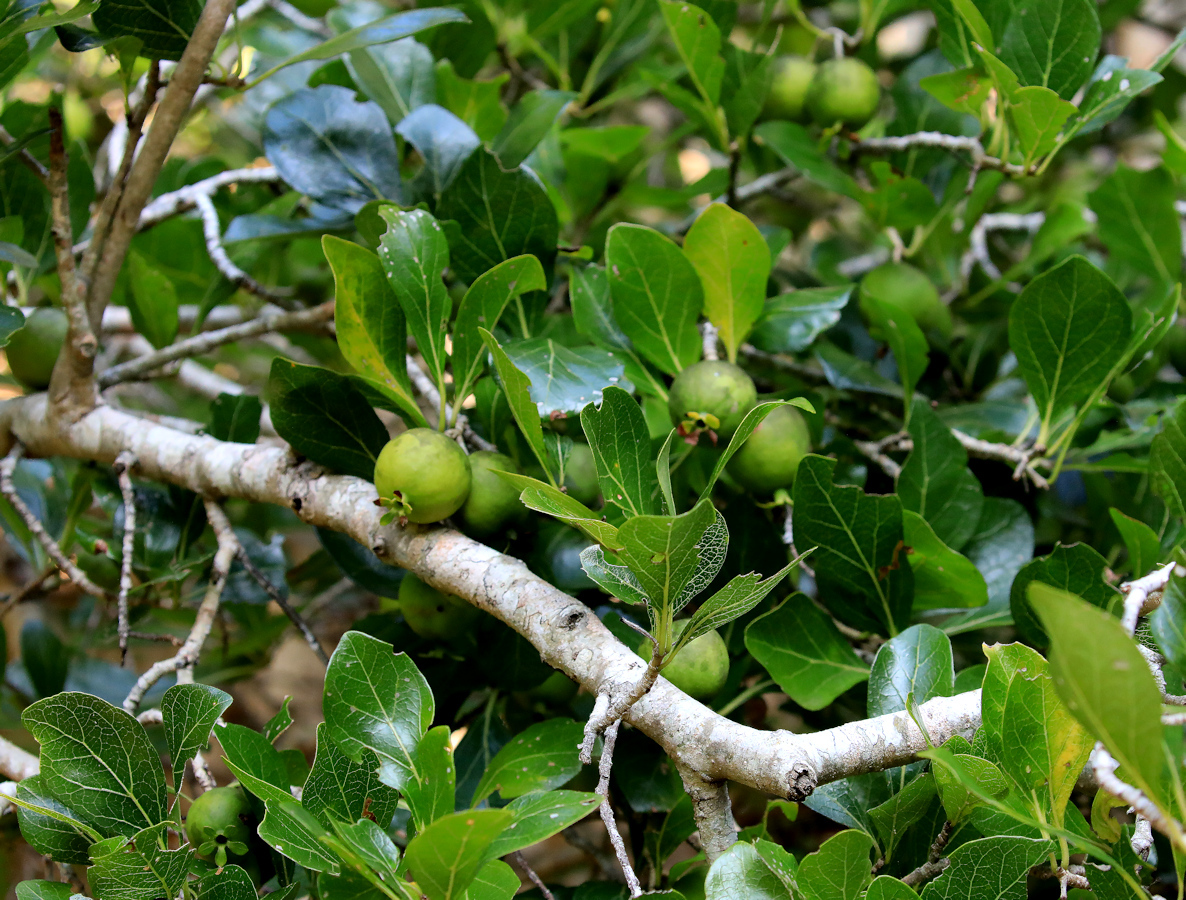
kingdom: Plantae
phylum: Tracheophyta
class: Magnoliopsida
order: Gentianales
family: Rubiaceae
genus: Catunaregam
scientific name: Catunaregam obovata
